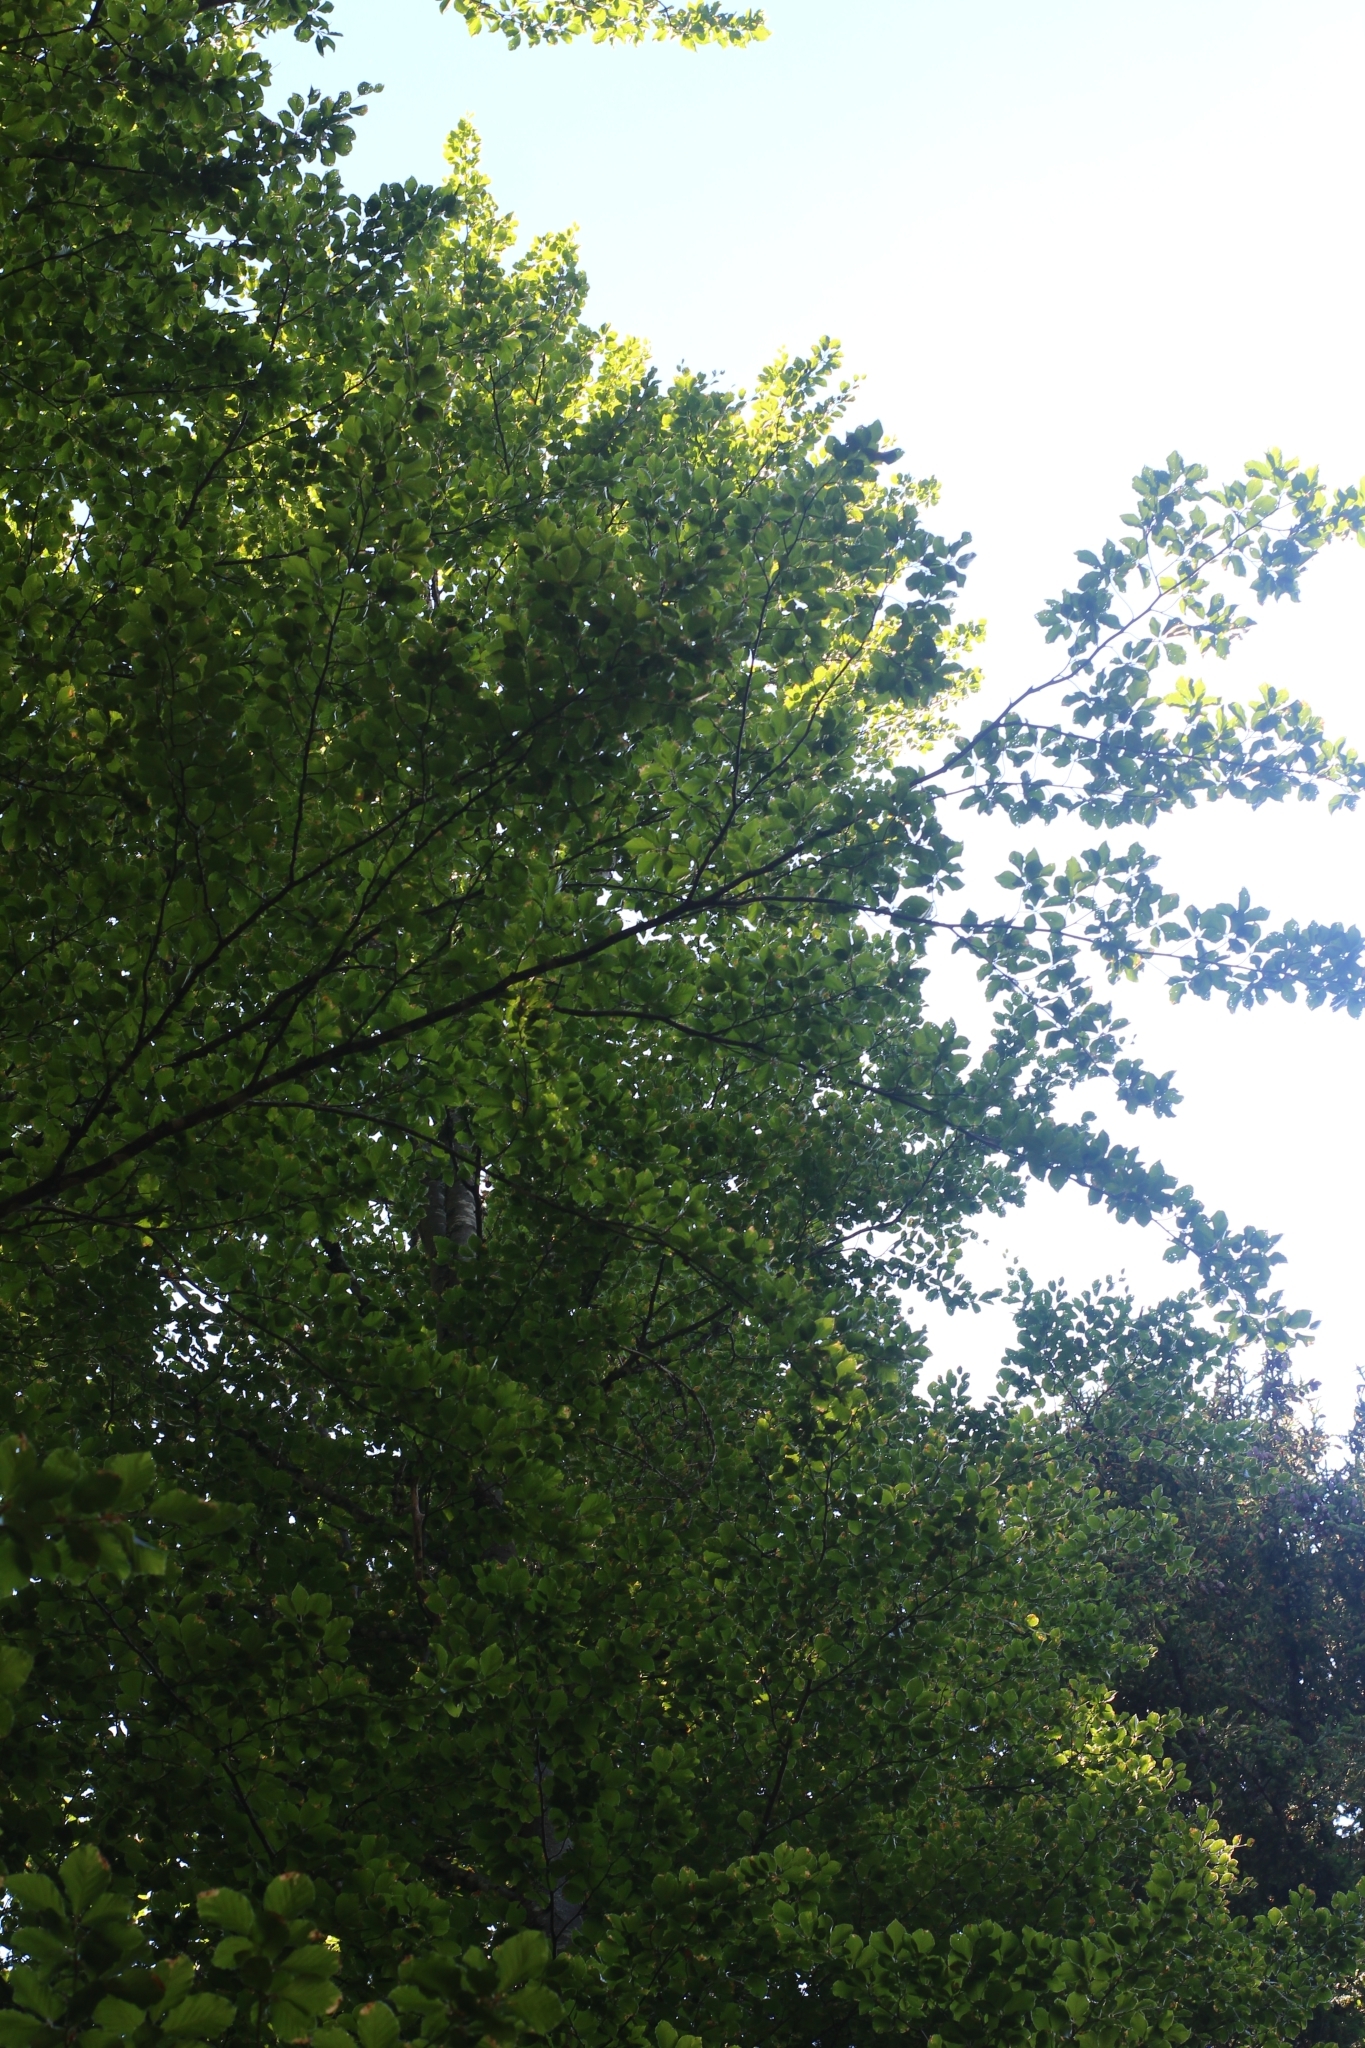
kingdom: Plantae
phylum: Tracheophyta
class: Magnoliopsida
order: Fagales
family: Fagaceae
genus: Fagus
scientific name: Fagus sylvatica
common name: Beech
